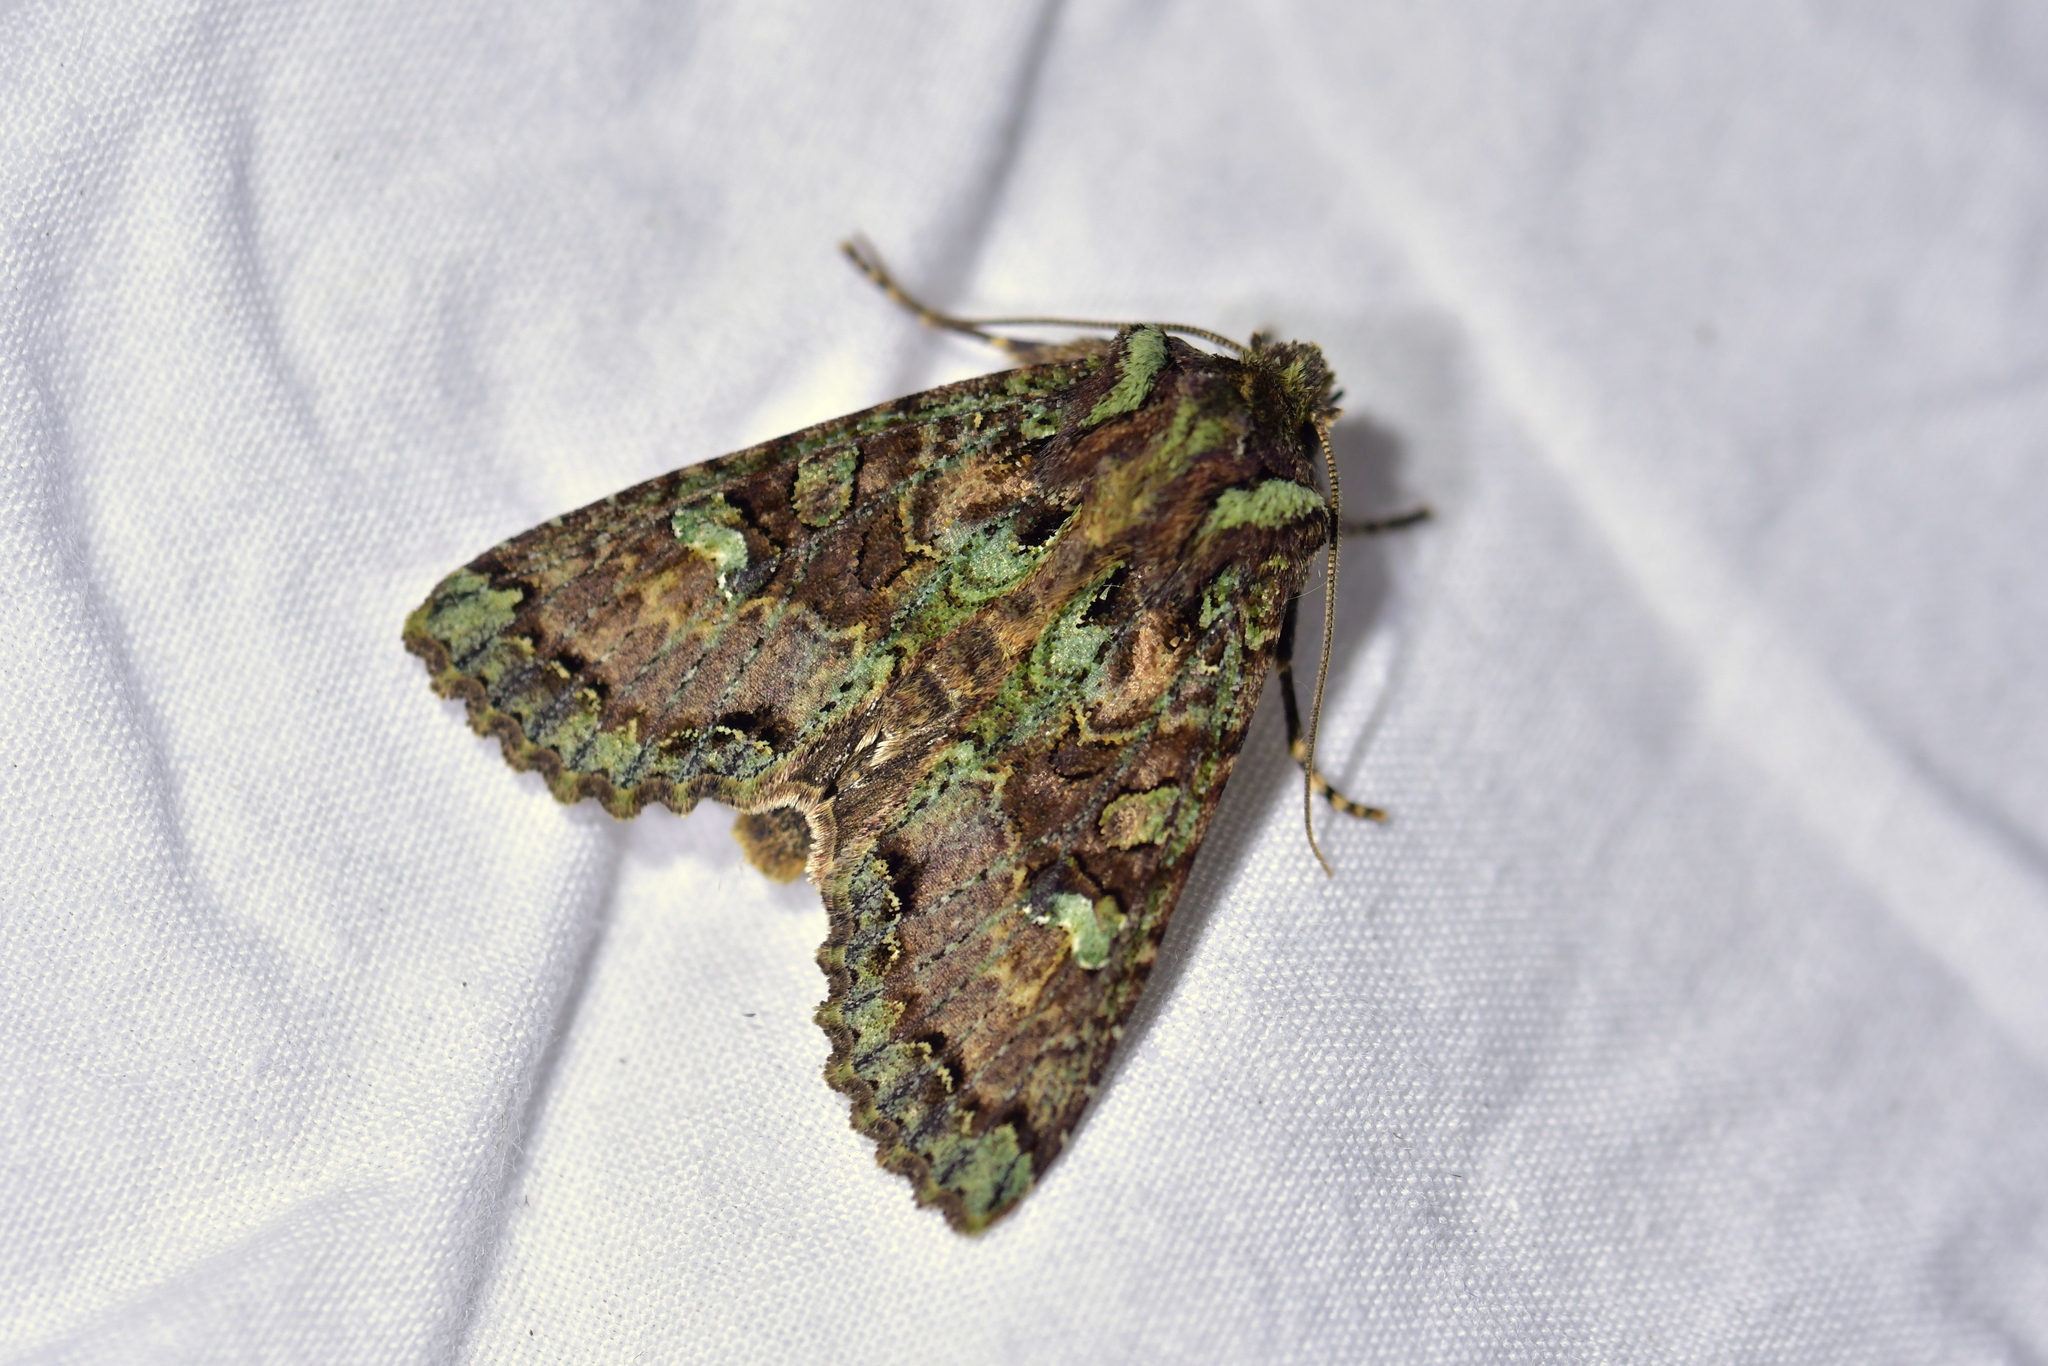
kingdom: Animalia
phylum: Arthropoda
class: Insecta
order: Lepidoptera
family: Noctuidae
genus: Meterana
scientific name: Meterana
